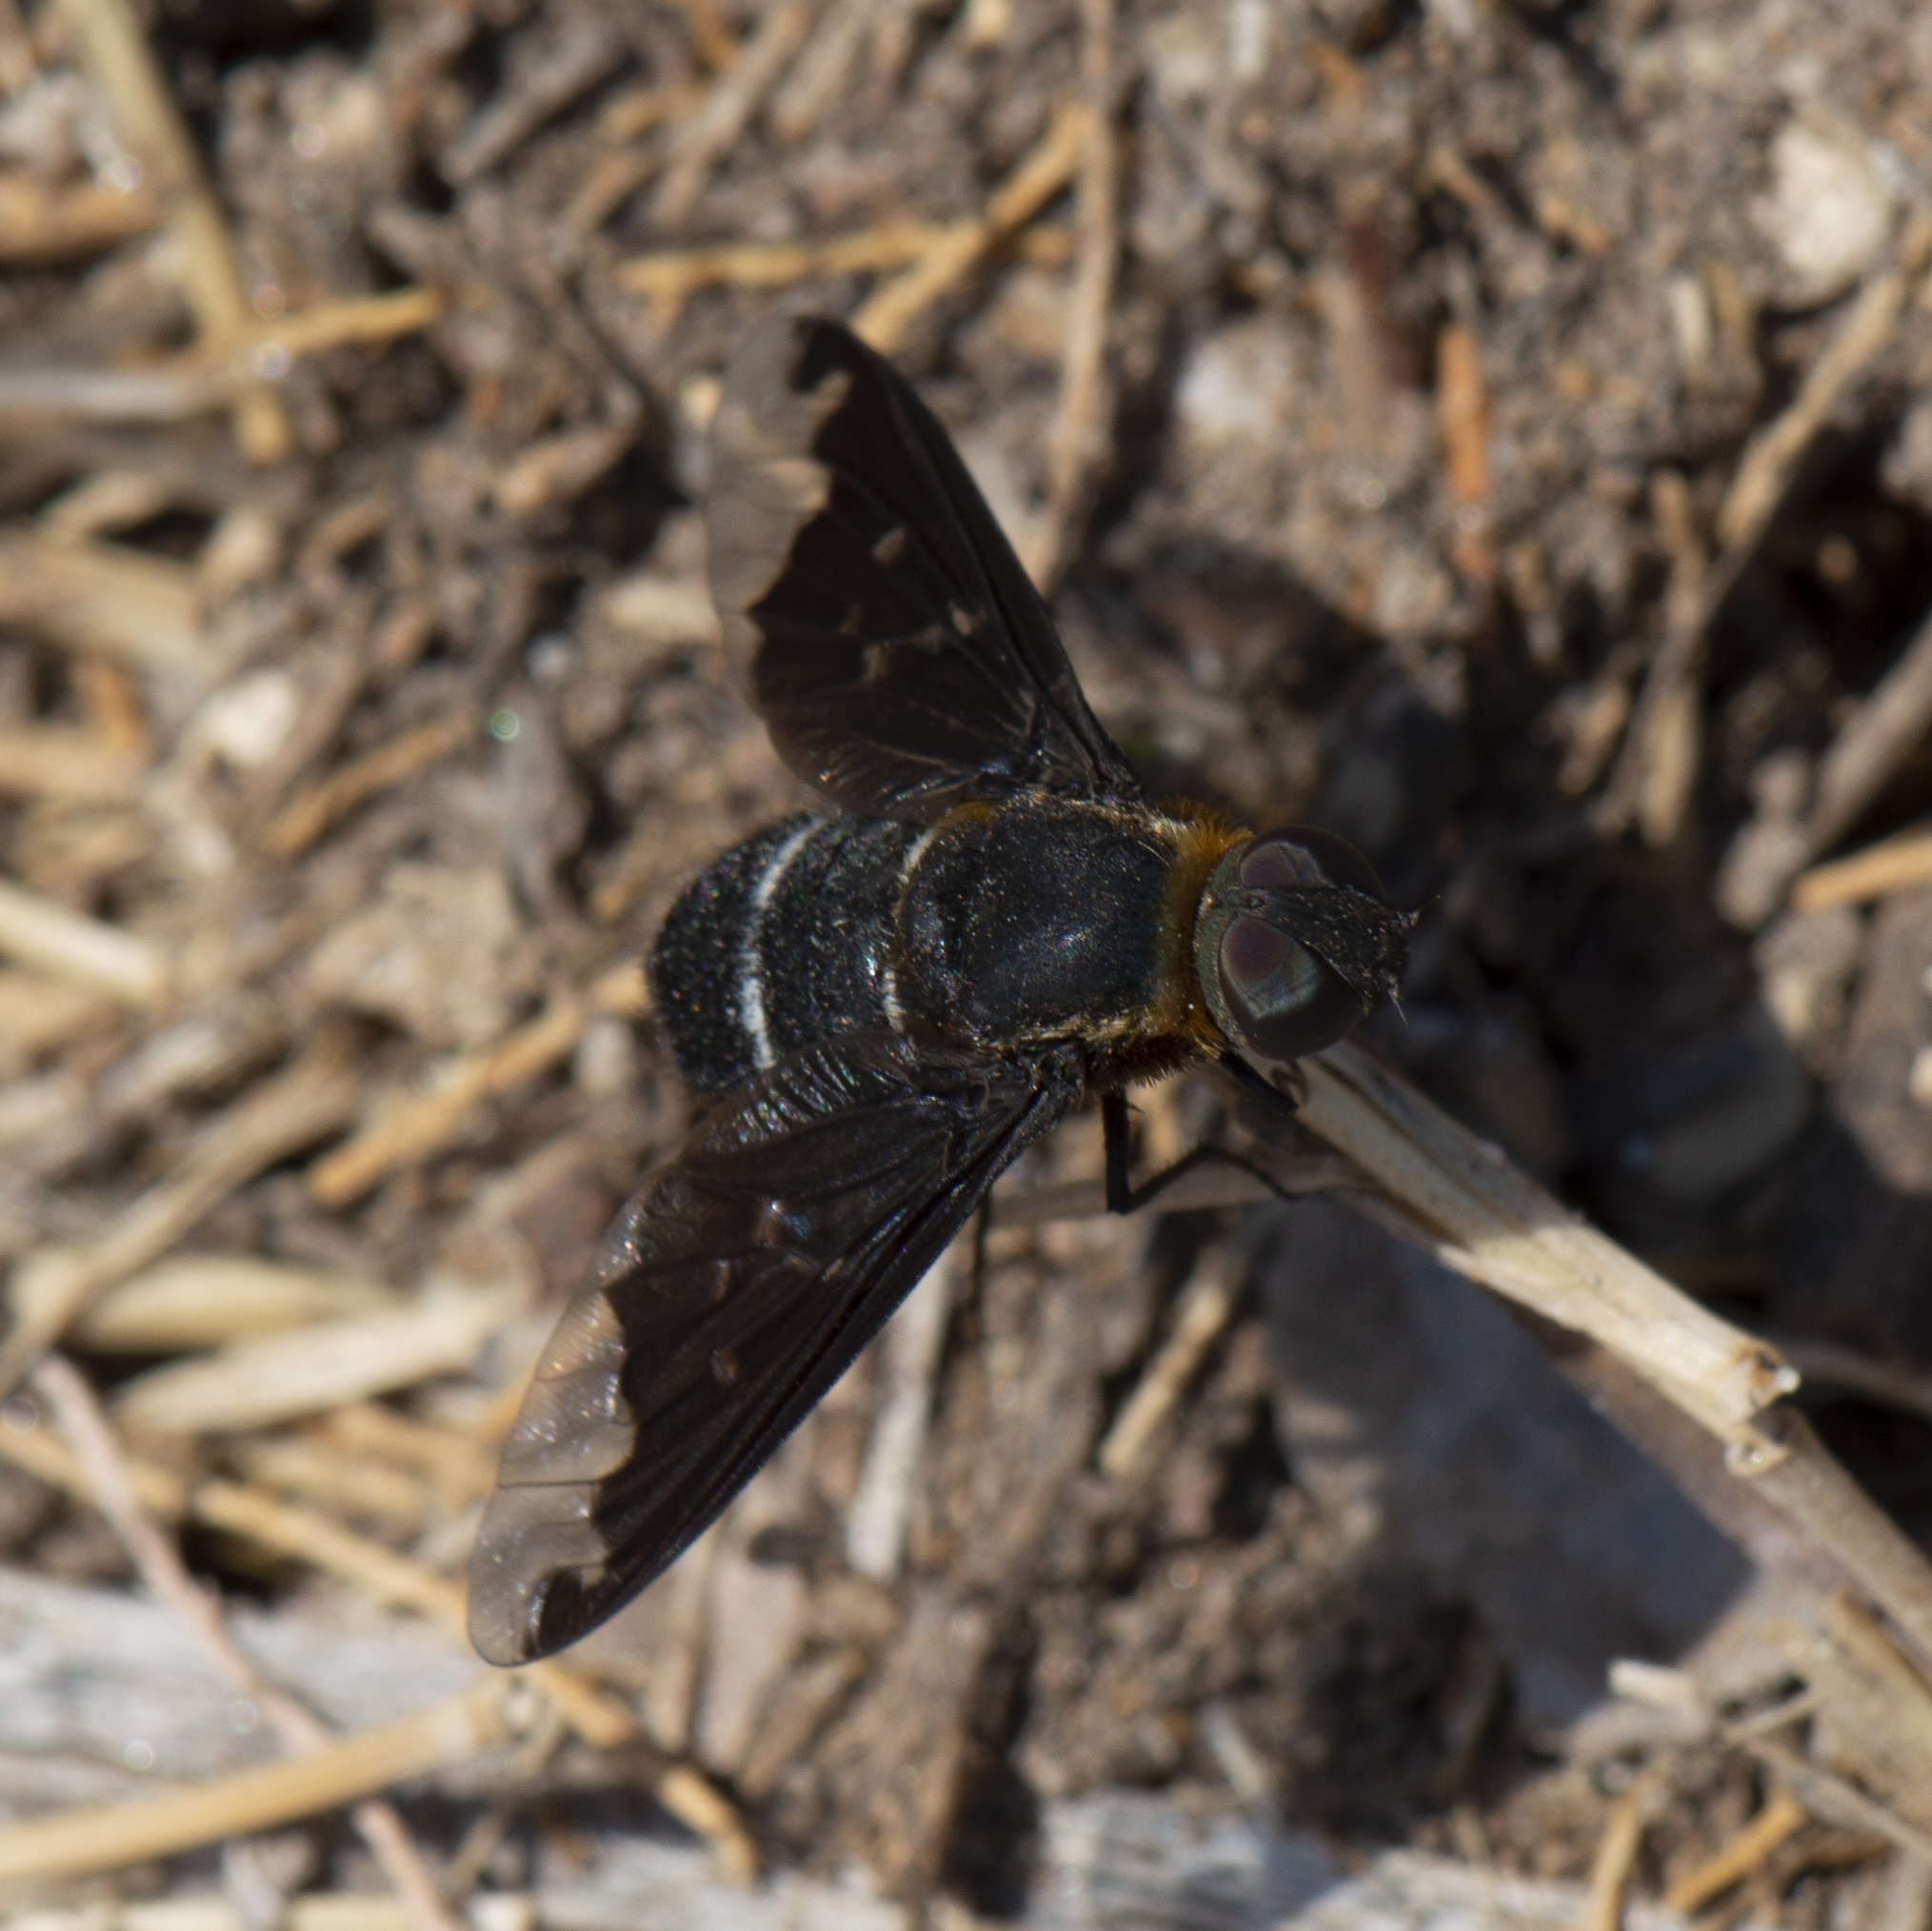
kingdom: Animalia
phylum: Arthropoda
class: Insecta
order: Diptera
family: Bombyliidae
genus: Hemipenthes
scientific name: Hemipenthes velutina
